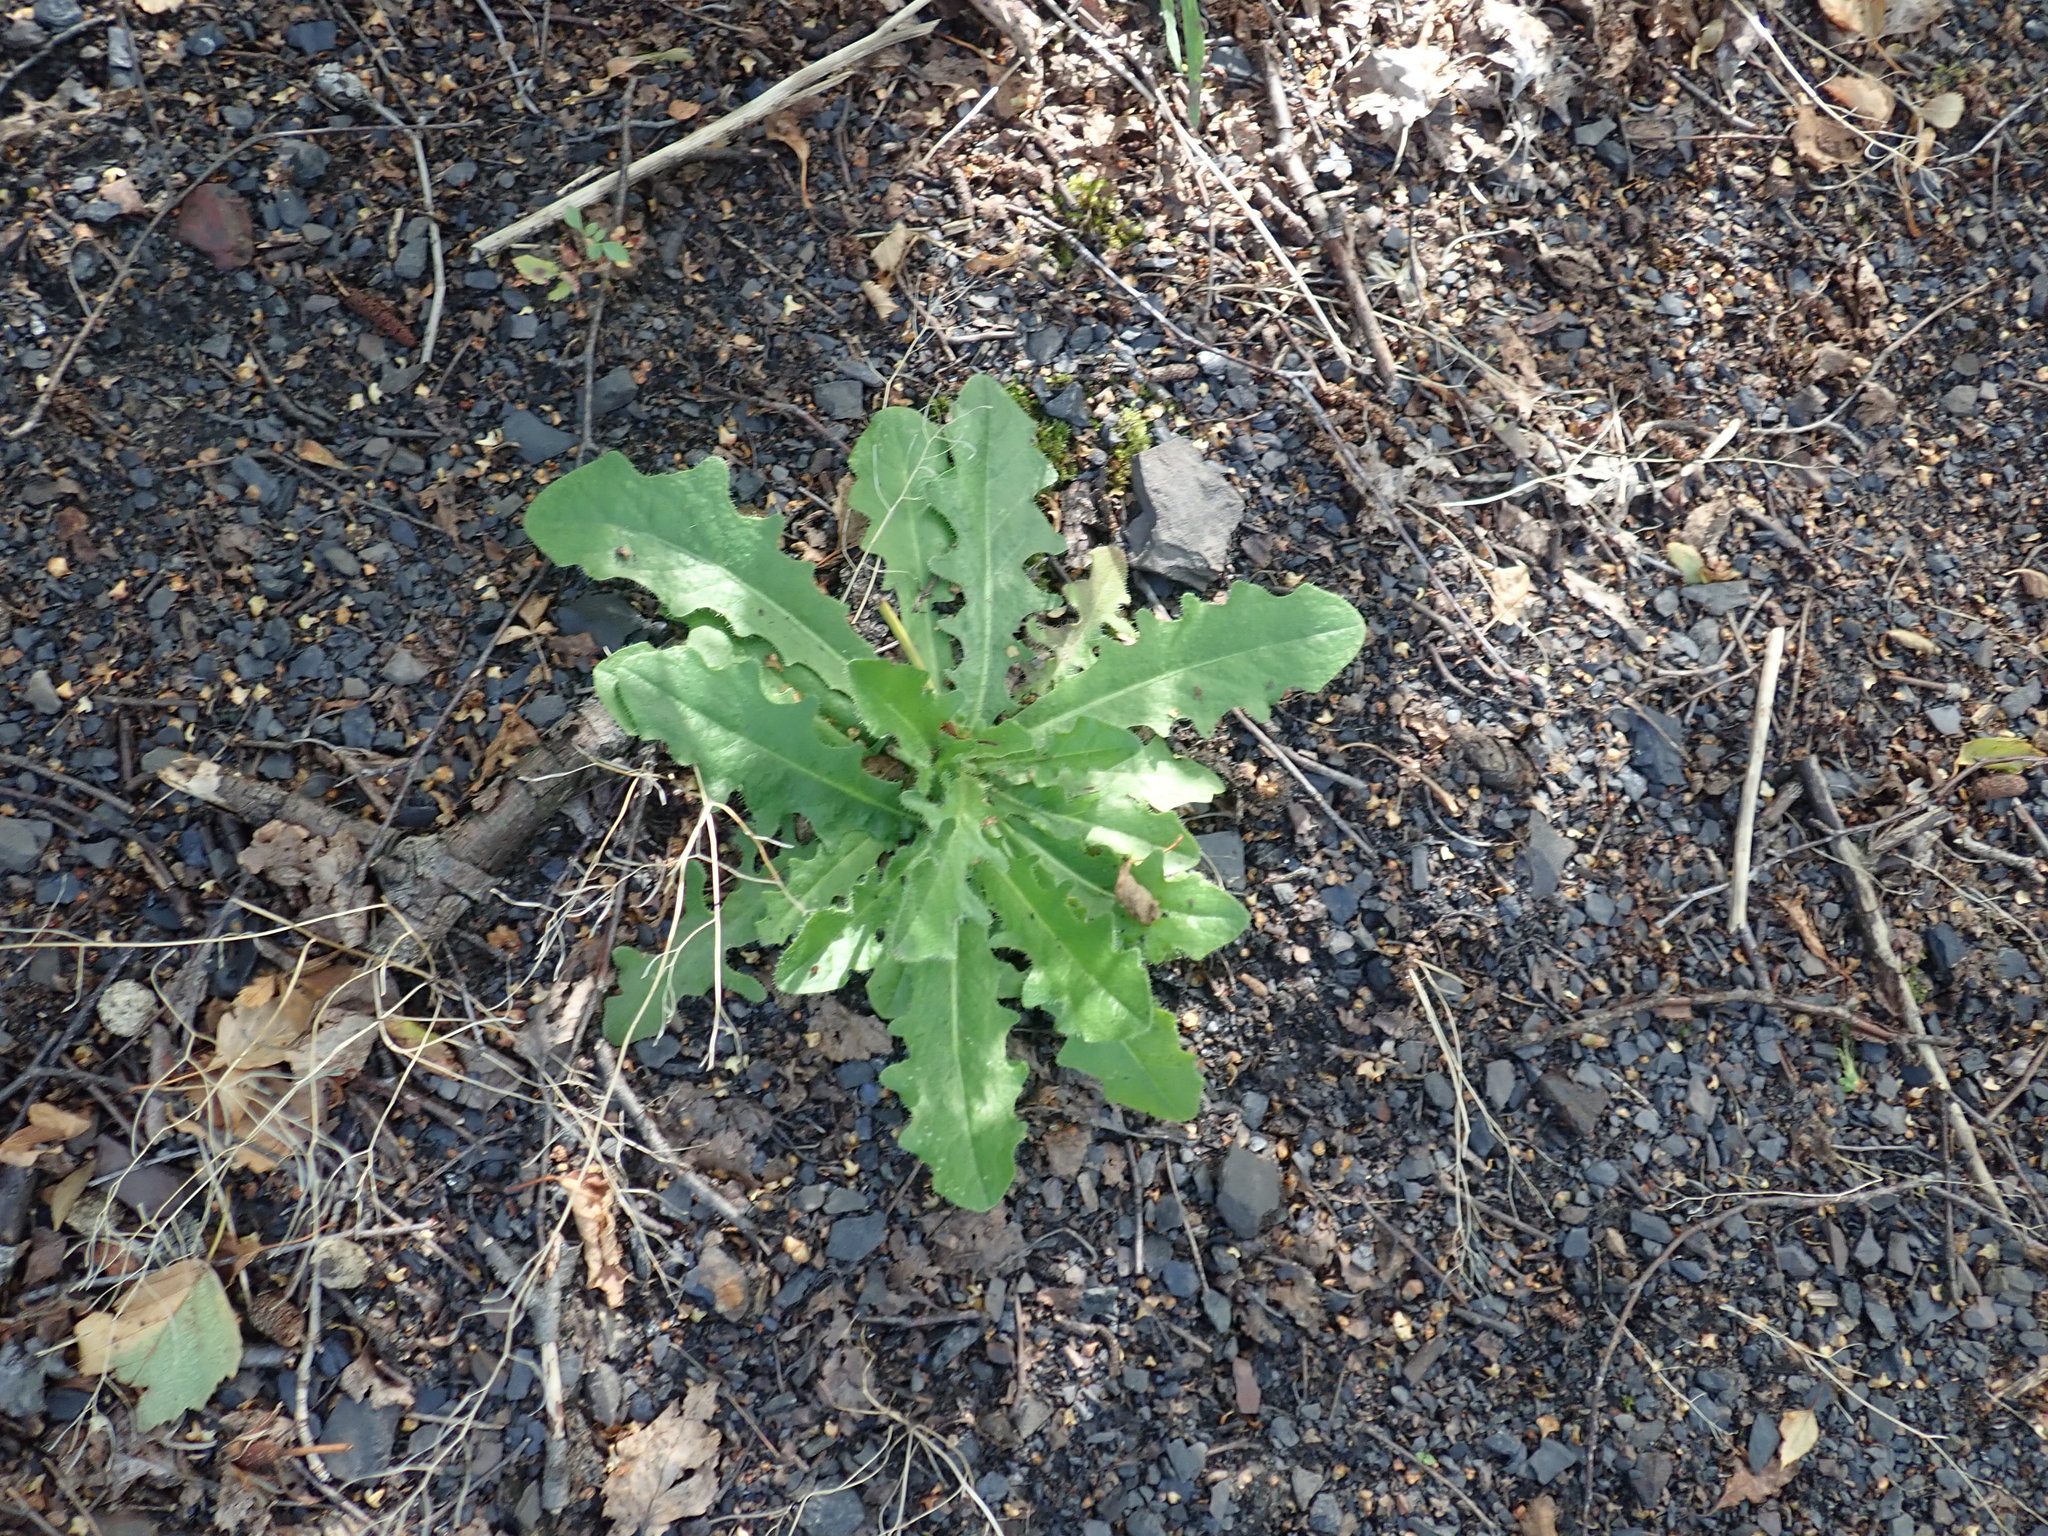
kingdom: Plantae
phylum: Tracheophyta
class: Magnoliopsida
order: Asterales
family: Asteraceae
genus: Hypochaeris
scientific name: Hypochaeris radicata
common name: Flatweed
